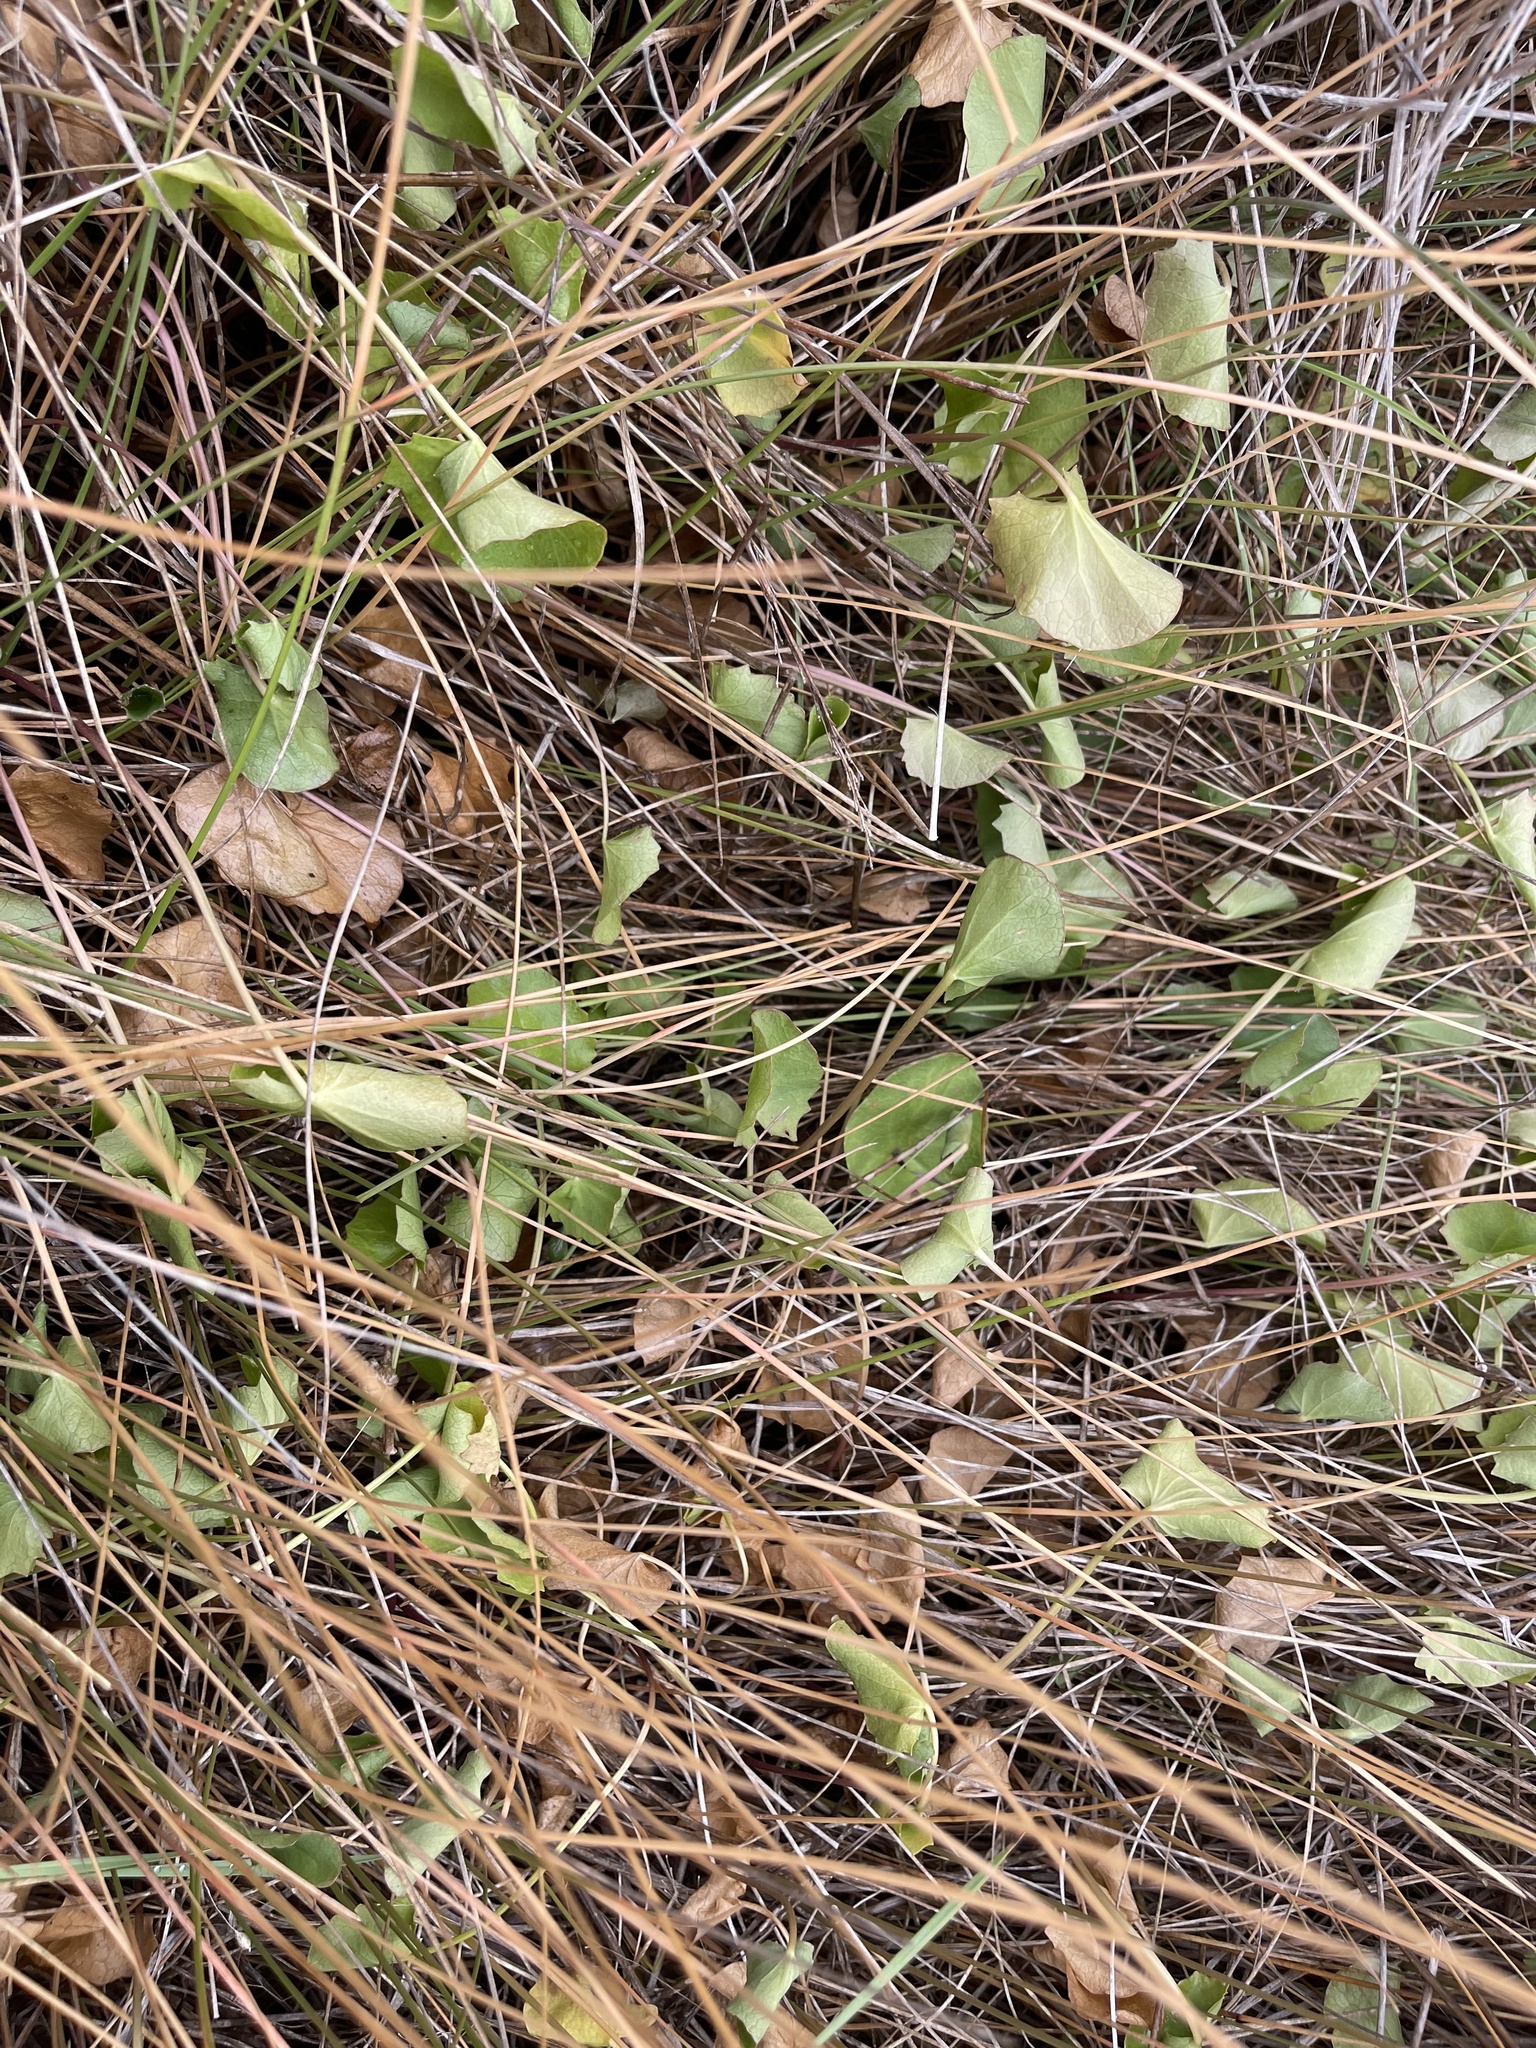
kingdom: Plantae
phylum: Tracheophyta
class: Magnoliopsida
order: Apiales
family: Apiaceae
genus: Centella
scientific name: Centella cordifolia
